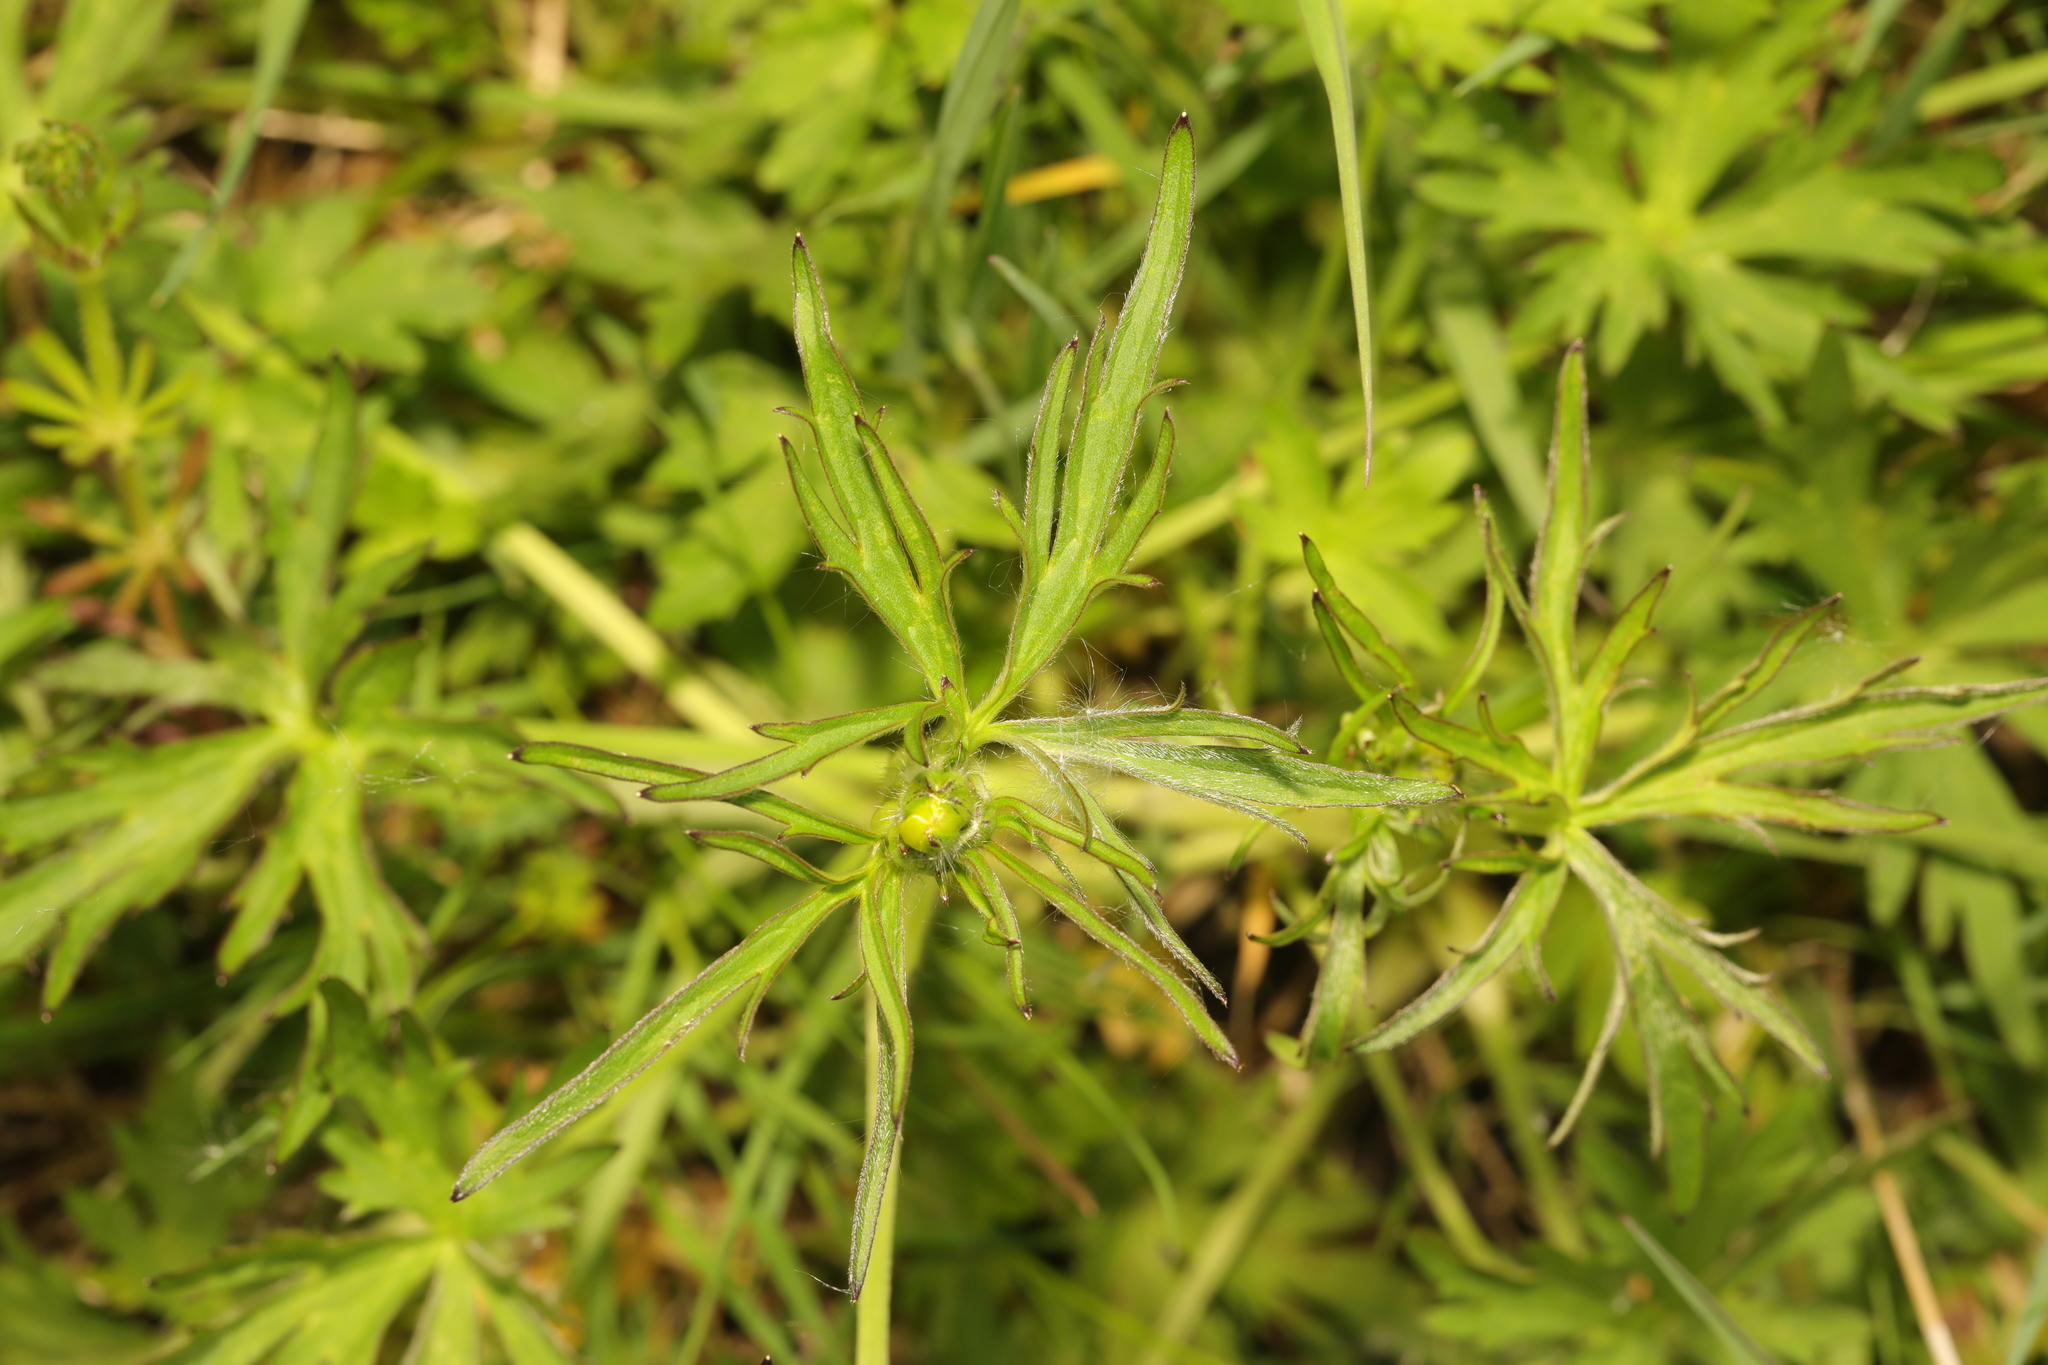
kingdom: Plantae
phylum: Tracheophyta
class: Magnoliopsida
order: Ranunculales
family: Ranunculaceae
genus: Ranunculus
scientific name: Ranunculus acris
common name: Meadow buttercup
